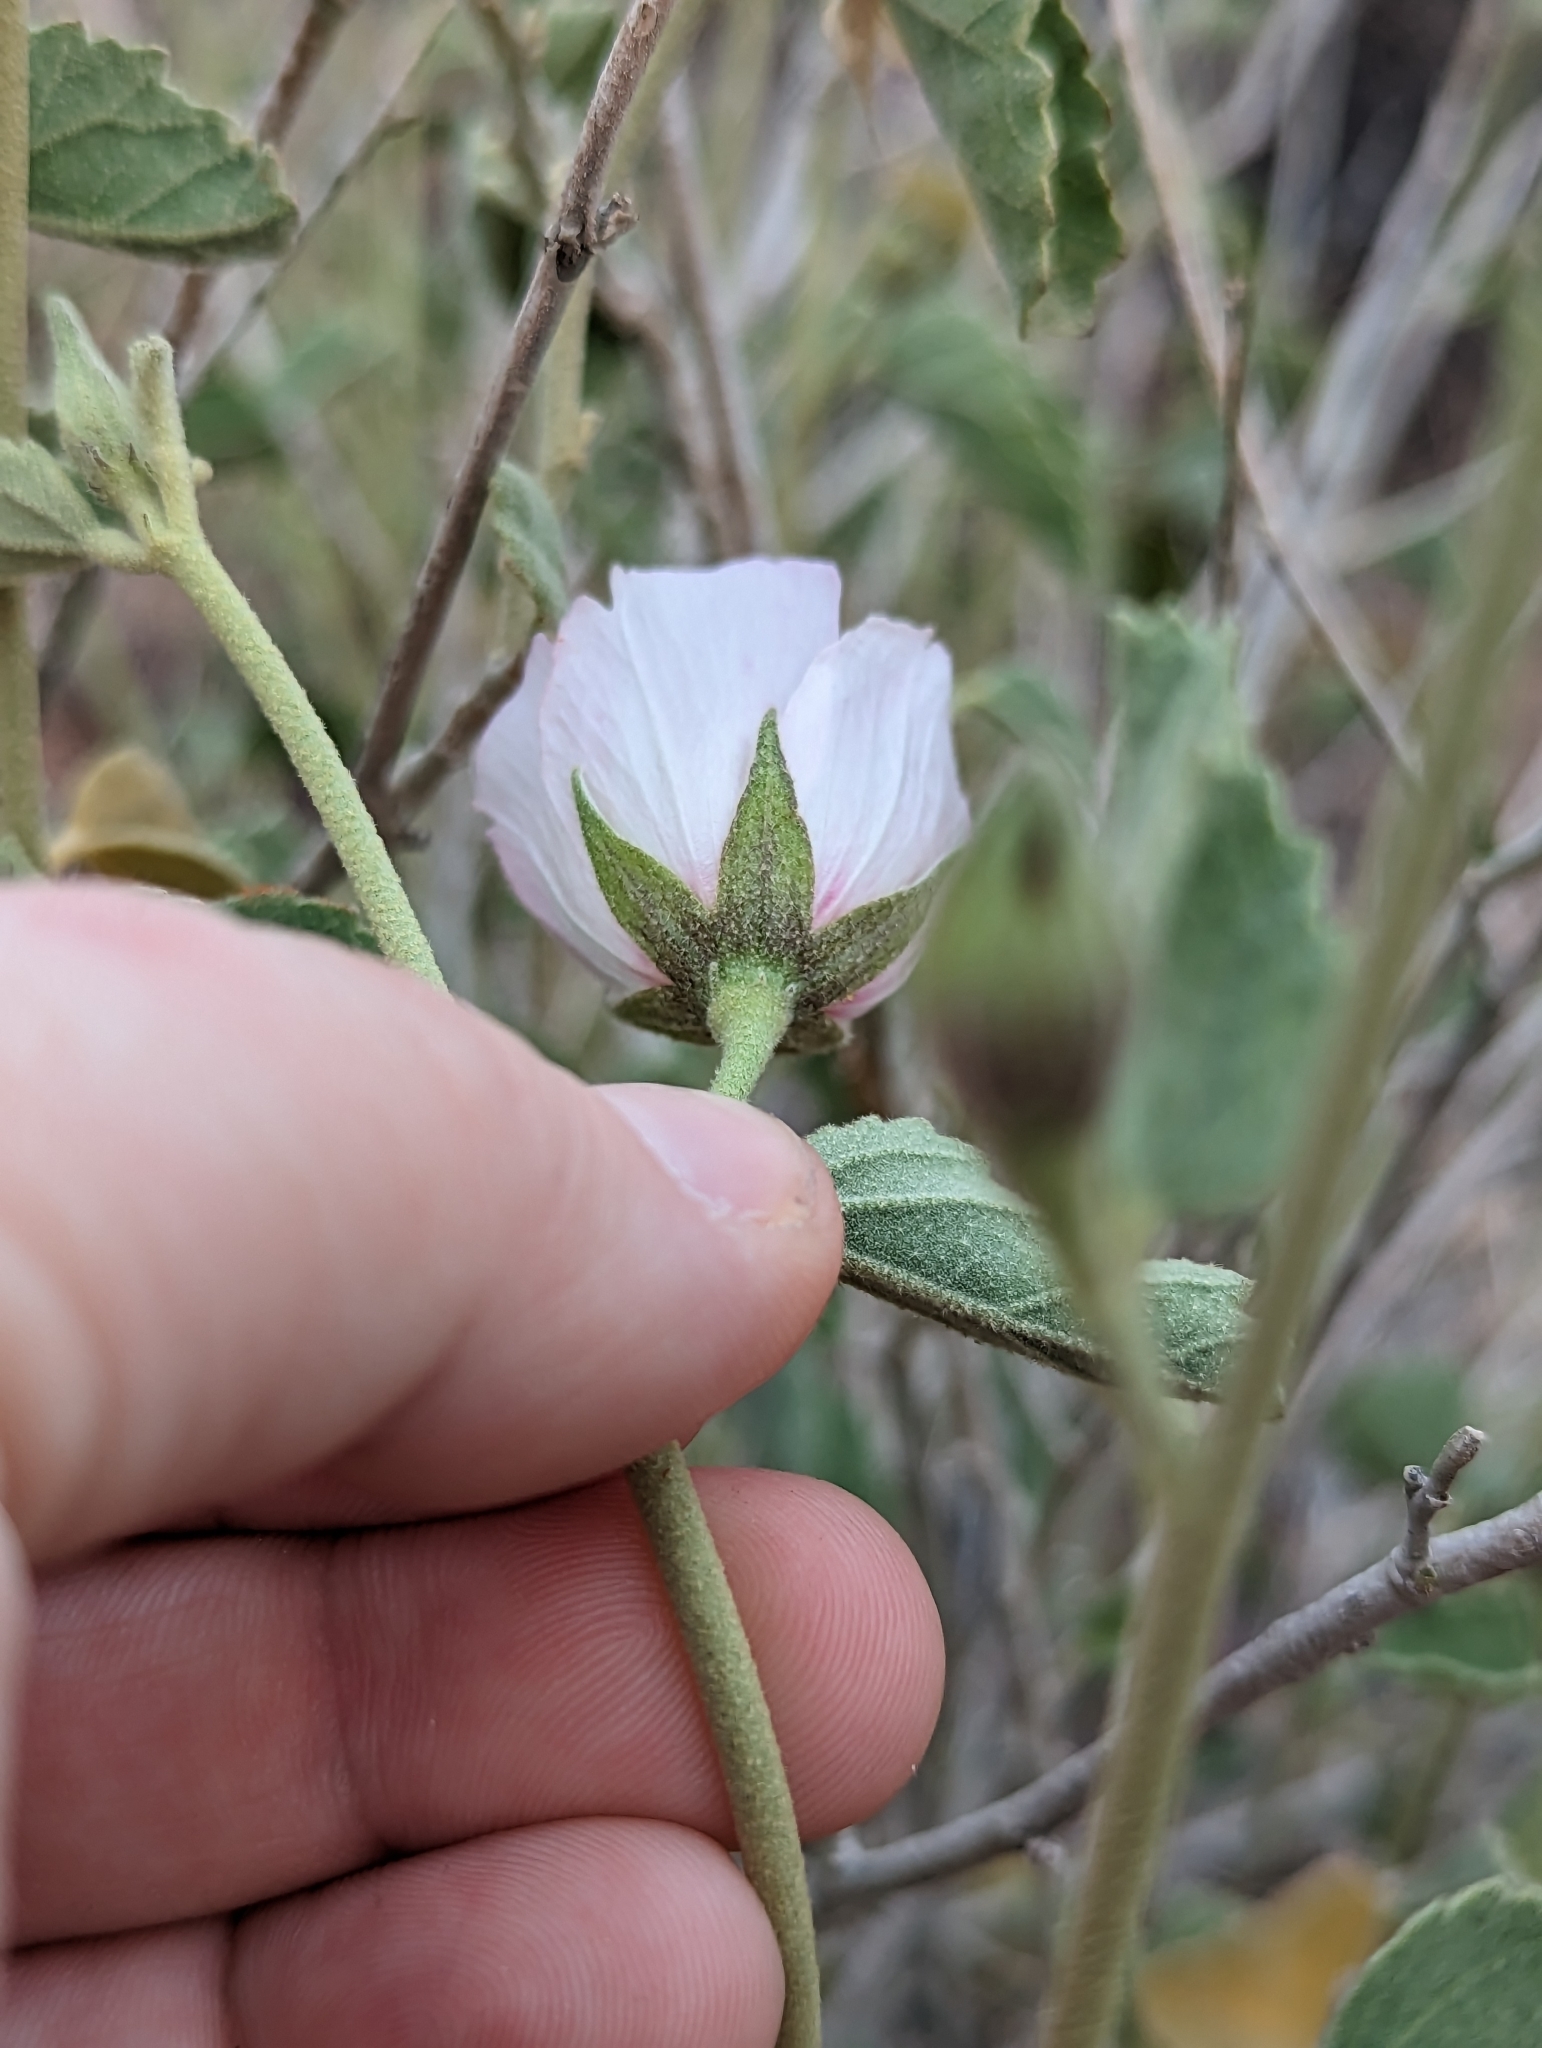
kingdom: Plantae
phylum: Tracheophyta
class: Magnoliopsida
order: Malvales
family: Malvaceae
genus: Hibiscus
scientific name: Hibiscus denudatus
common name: Paleface
